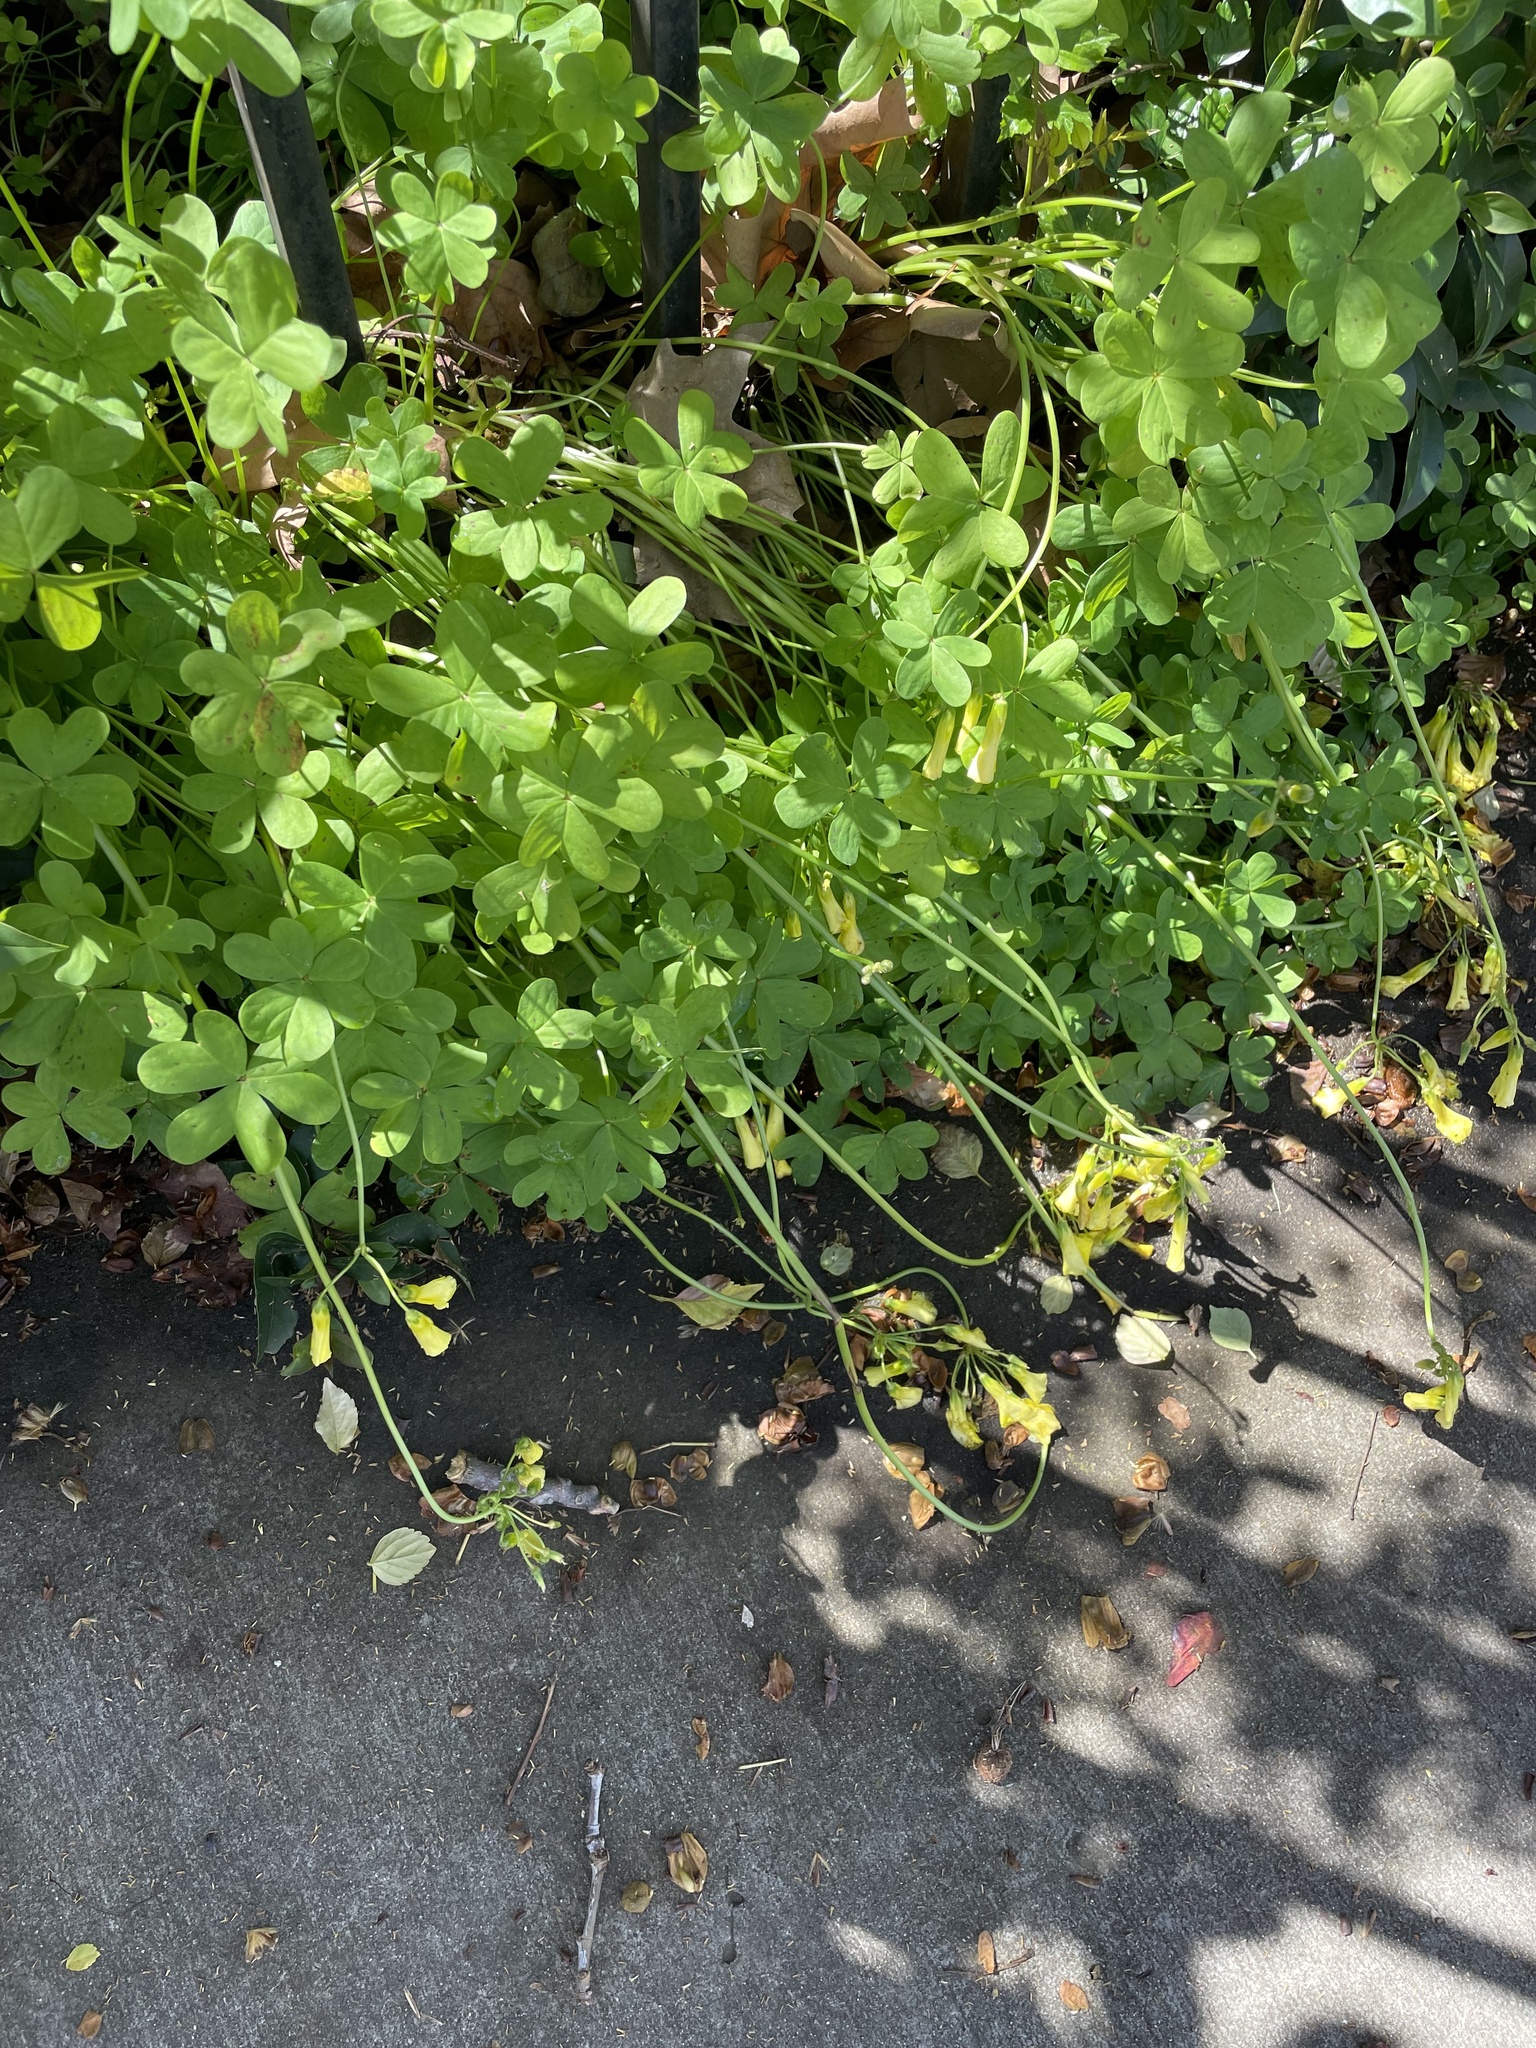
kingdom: Plantae
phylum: Tracheophyta
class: Magnoliopsida
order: Oxalidales
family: Oxalidaceae
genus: Oxalis
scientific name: Oxalis pes-caprae
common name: Bermuda-buttercup
